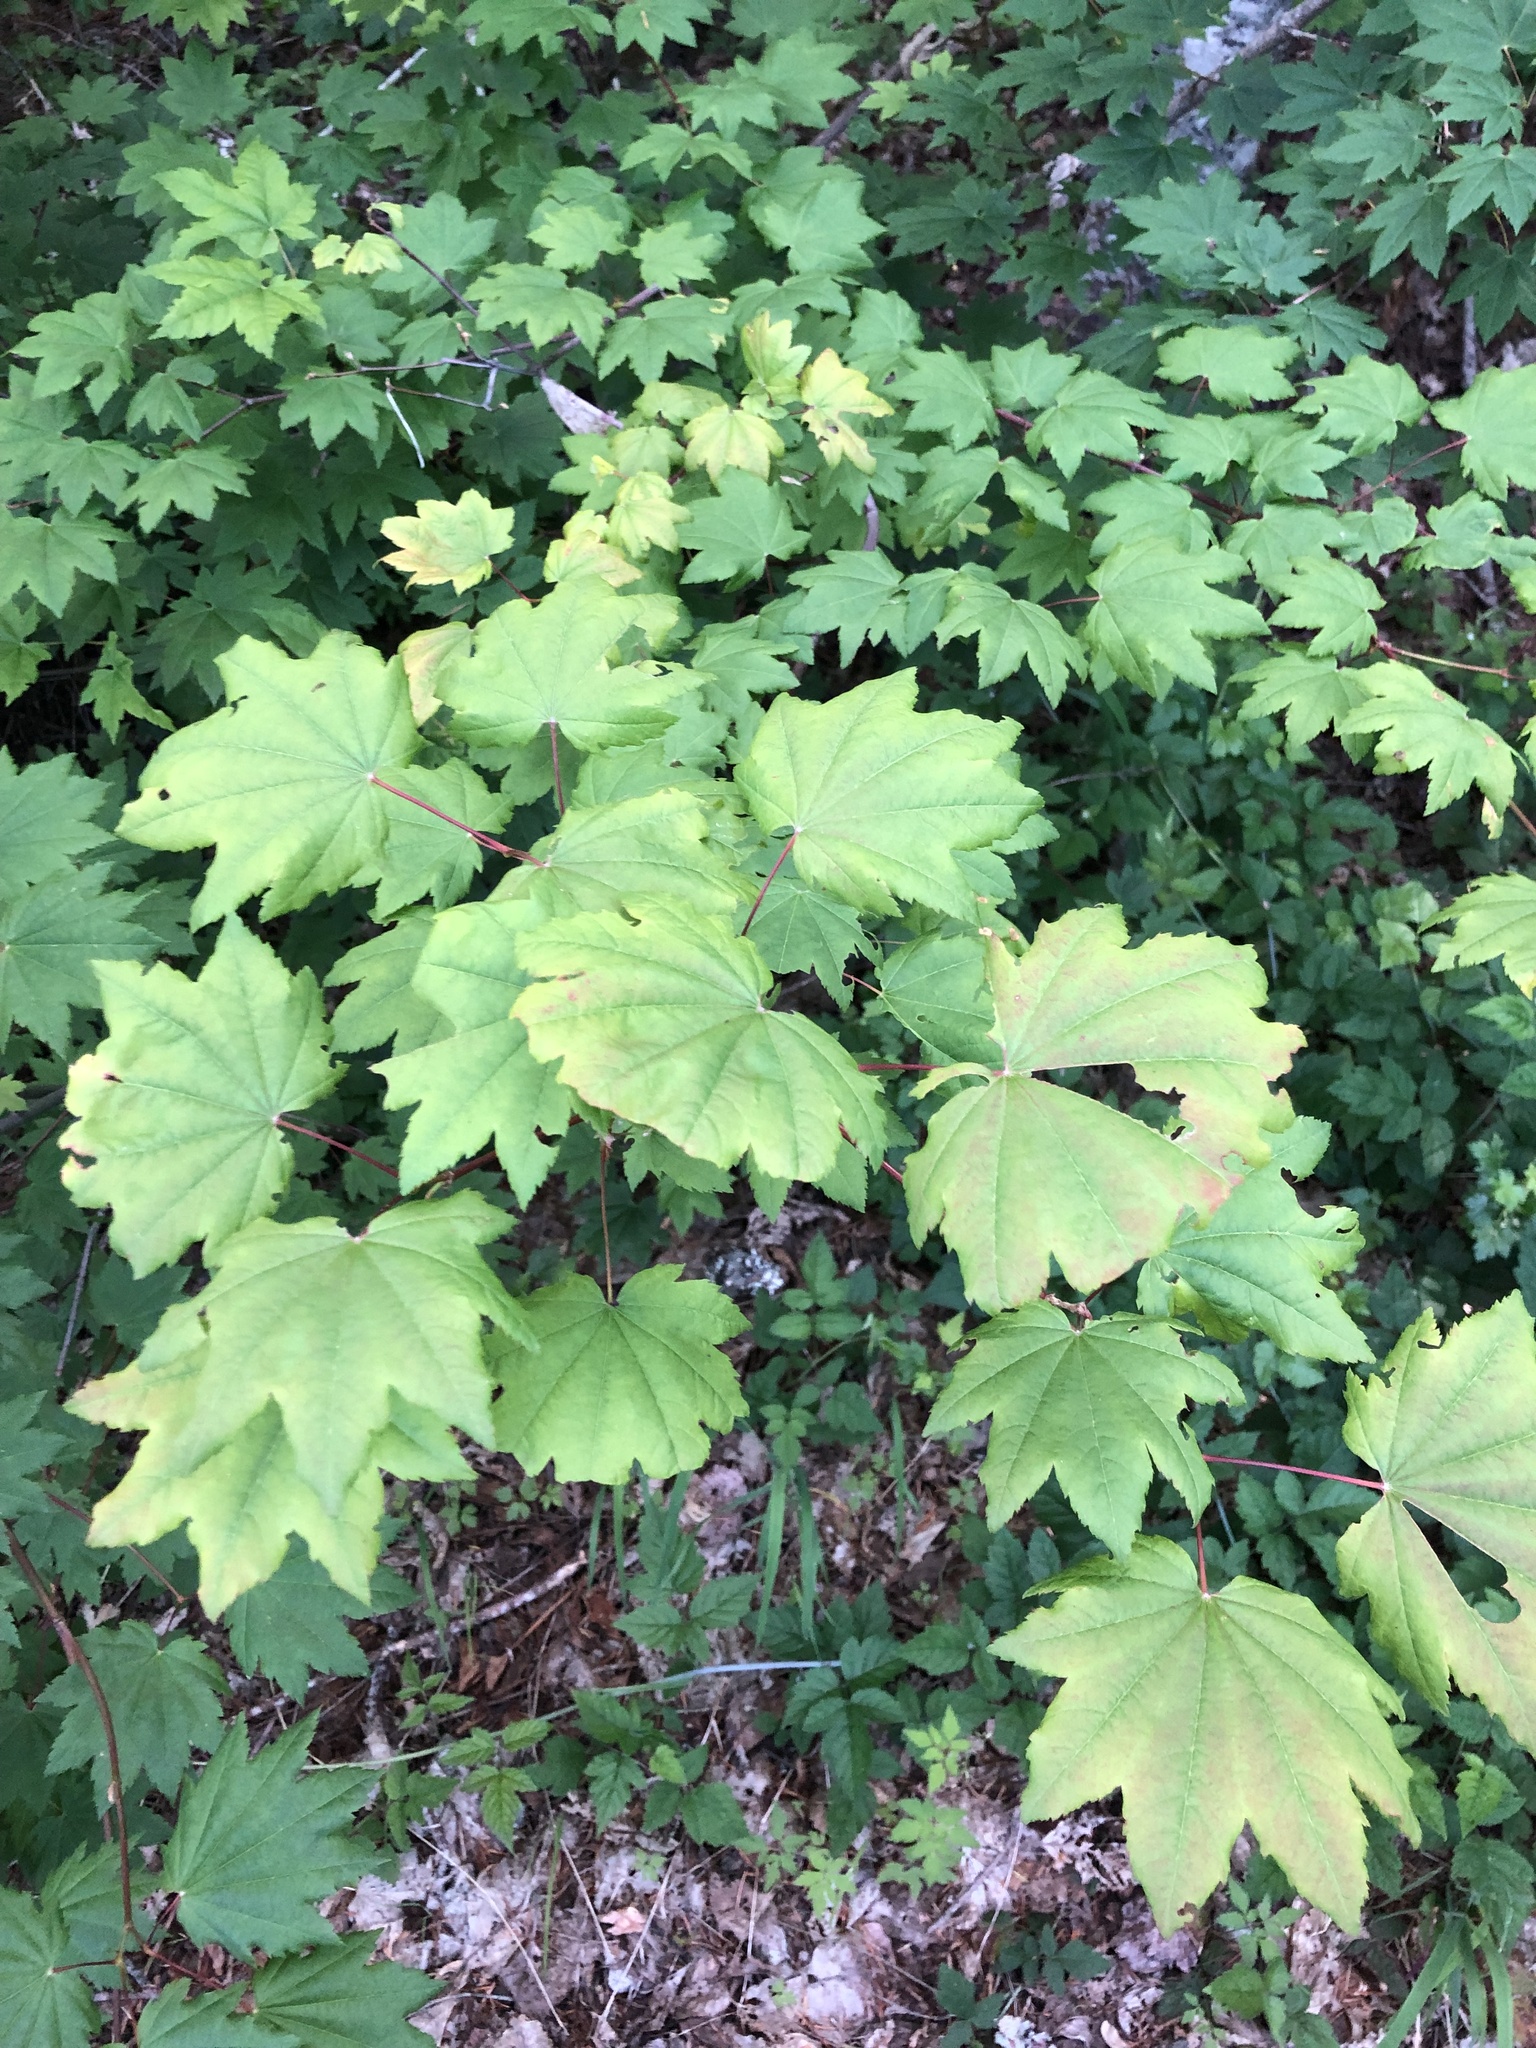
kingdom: Plantae
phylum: Tracheophyta
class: Magnoliopsida
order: Sapindales
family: Sapindaceae
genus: Acer
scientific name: Acer circinatum
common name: Vine maple
